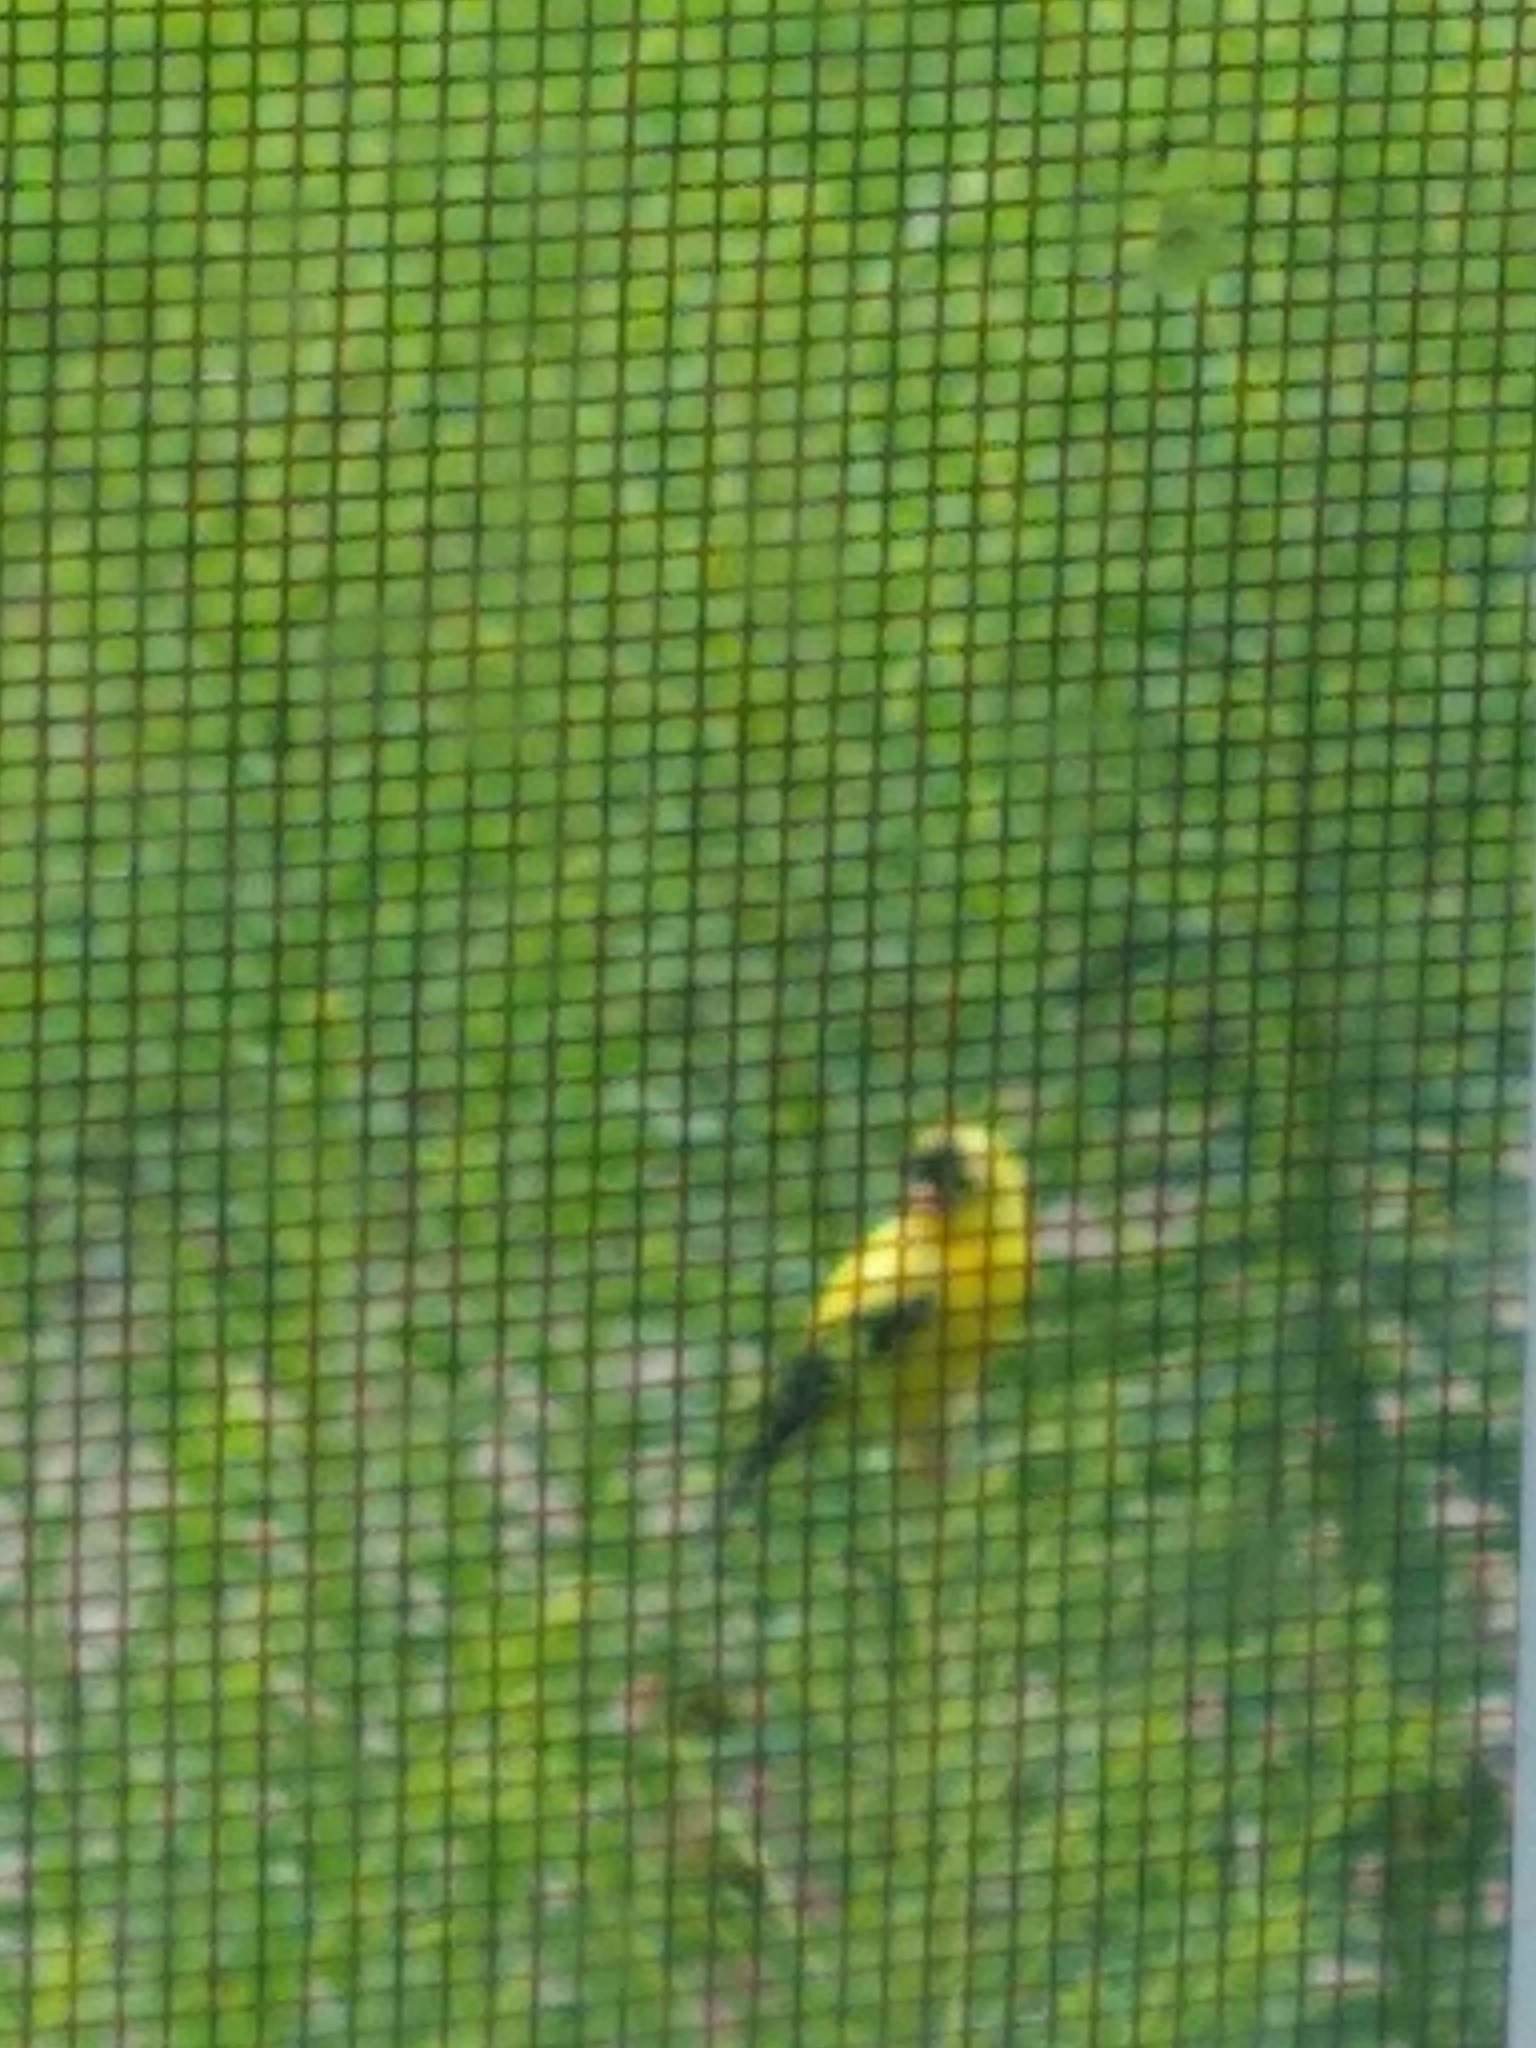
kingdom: Animalia
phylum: Chordata
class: Aves
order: Passeriformes
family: Fringillidae
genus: Spinus
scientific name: Spinus tristis
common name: American goldfinch
